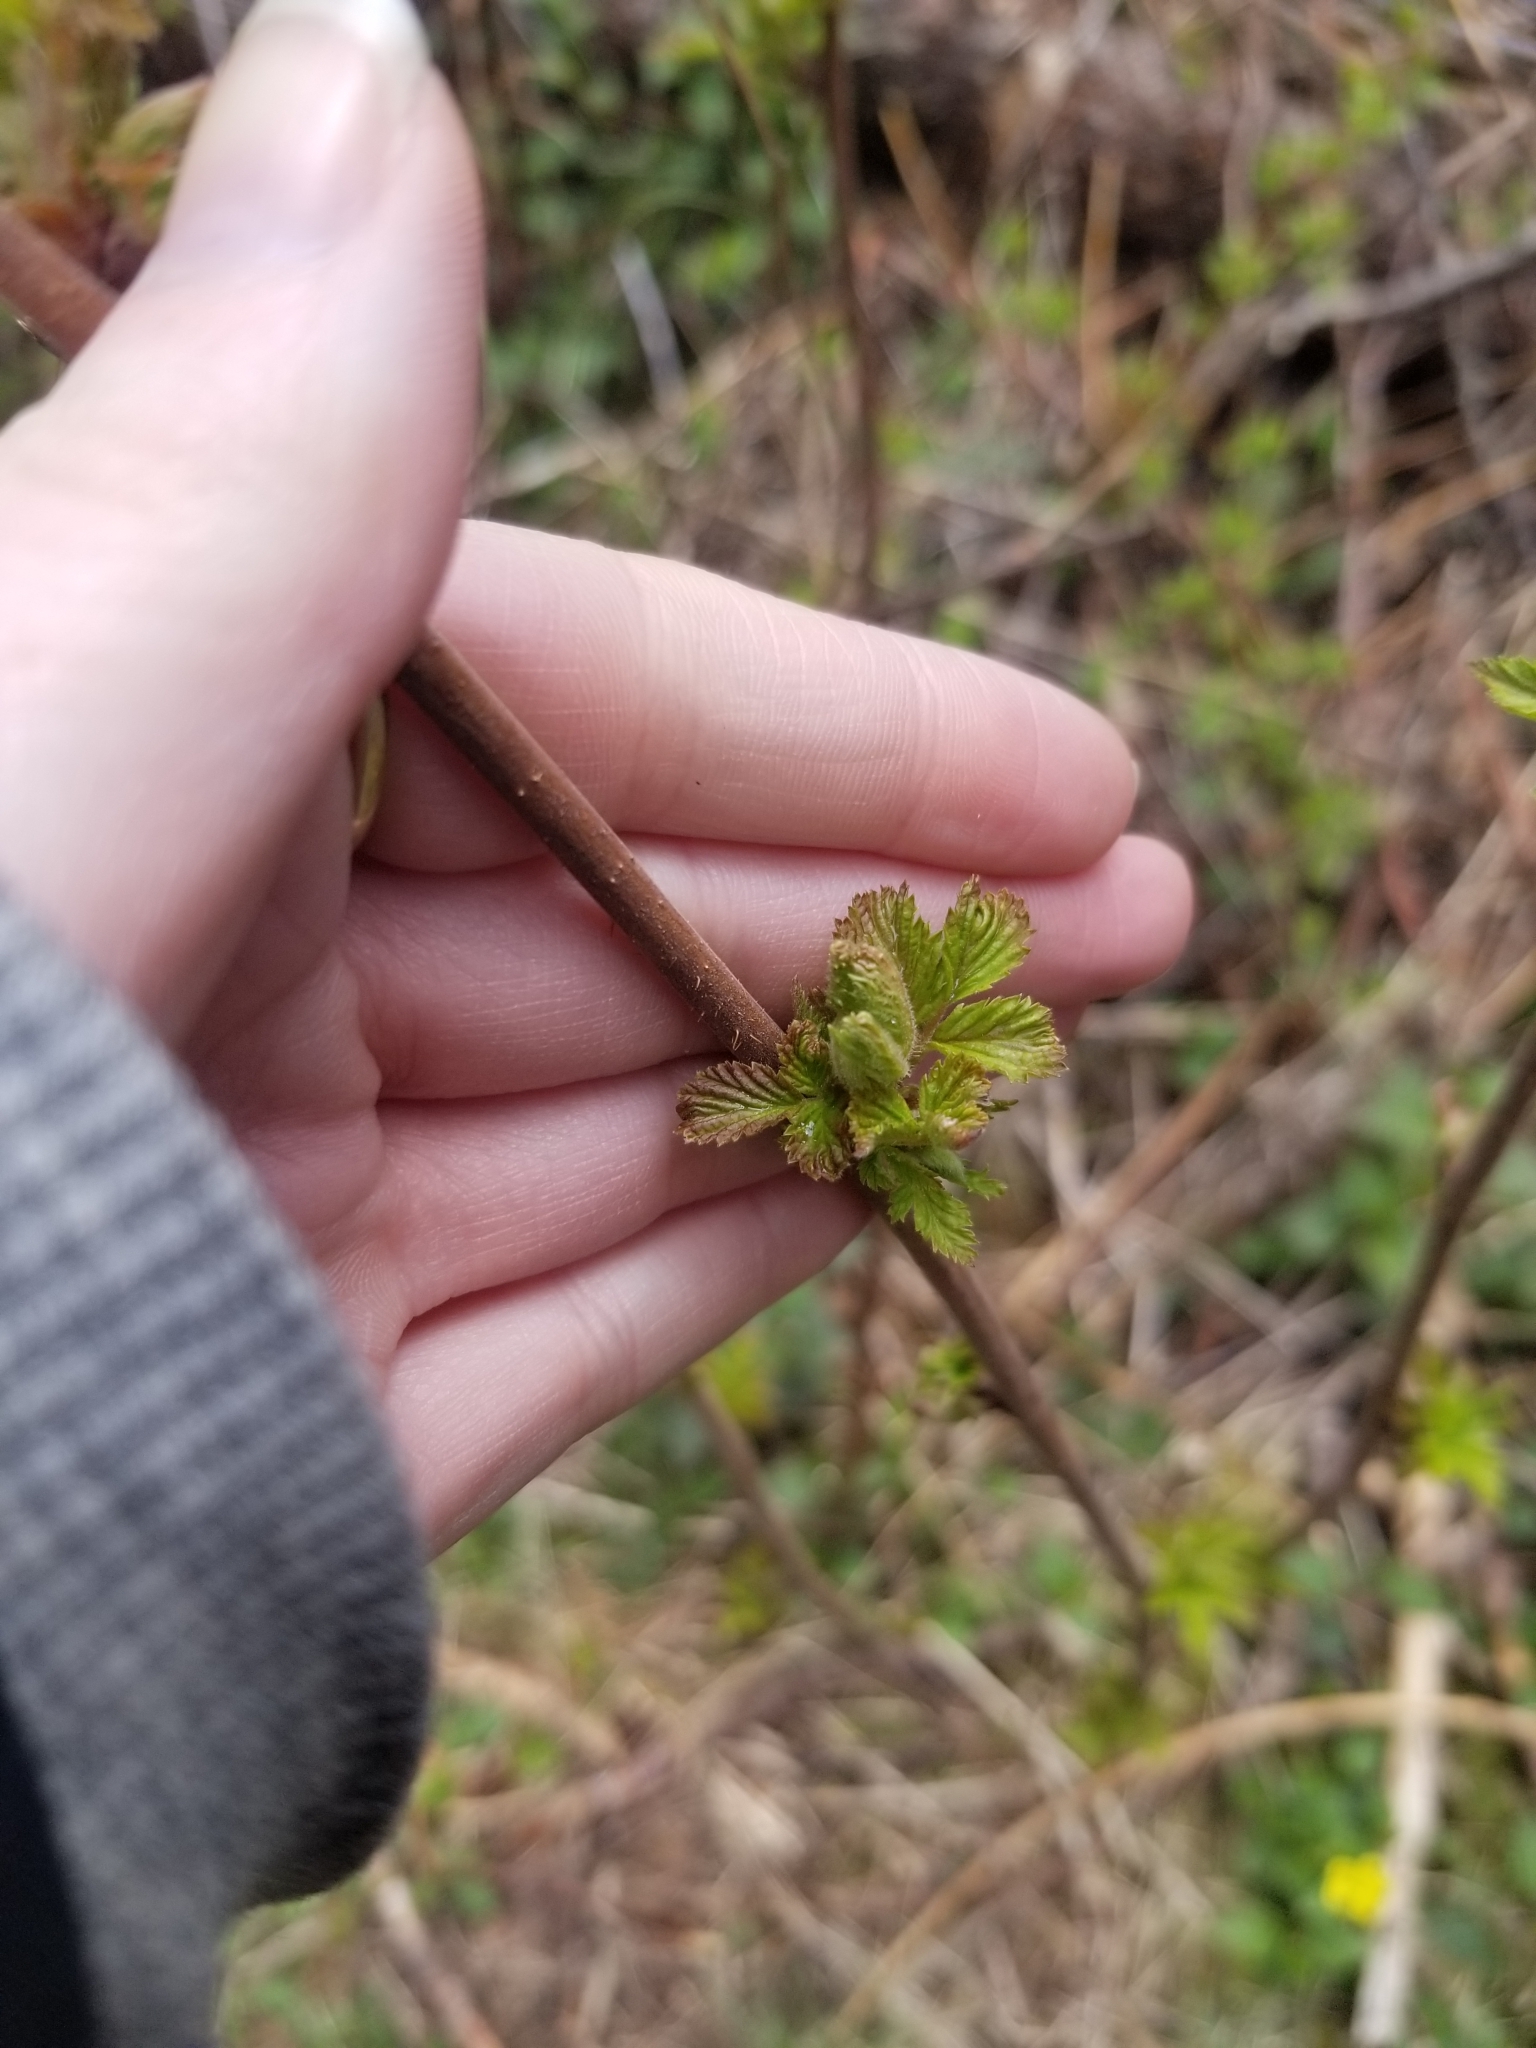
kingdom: Plantae
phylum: Tracheophyta
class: Magnoliopsida
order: Rosales
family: Rosaceae
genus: Rubus
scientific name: Rubus idaeus
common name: Raspberry
